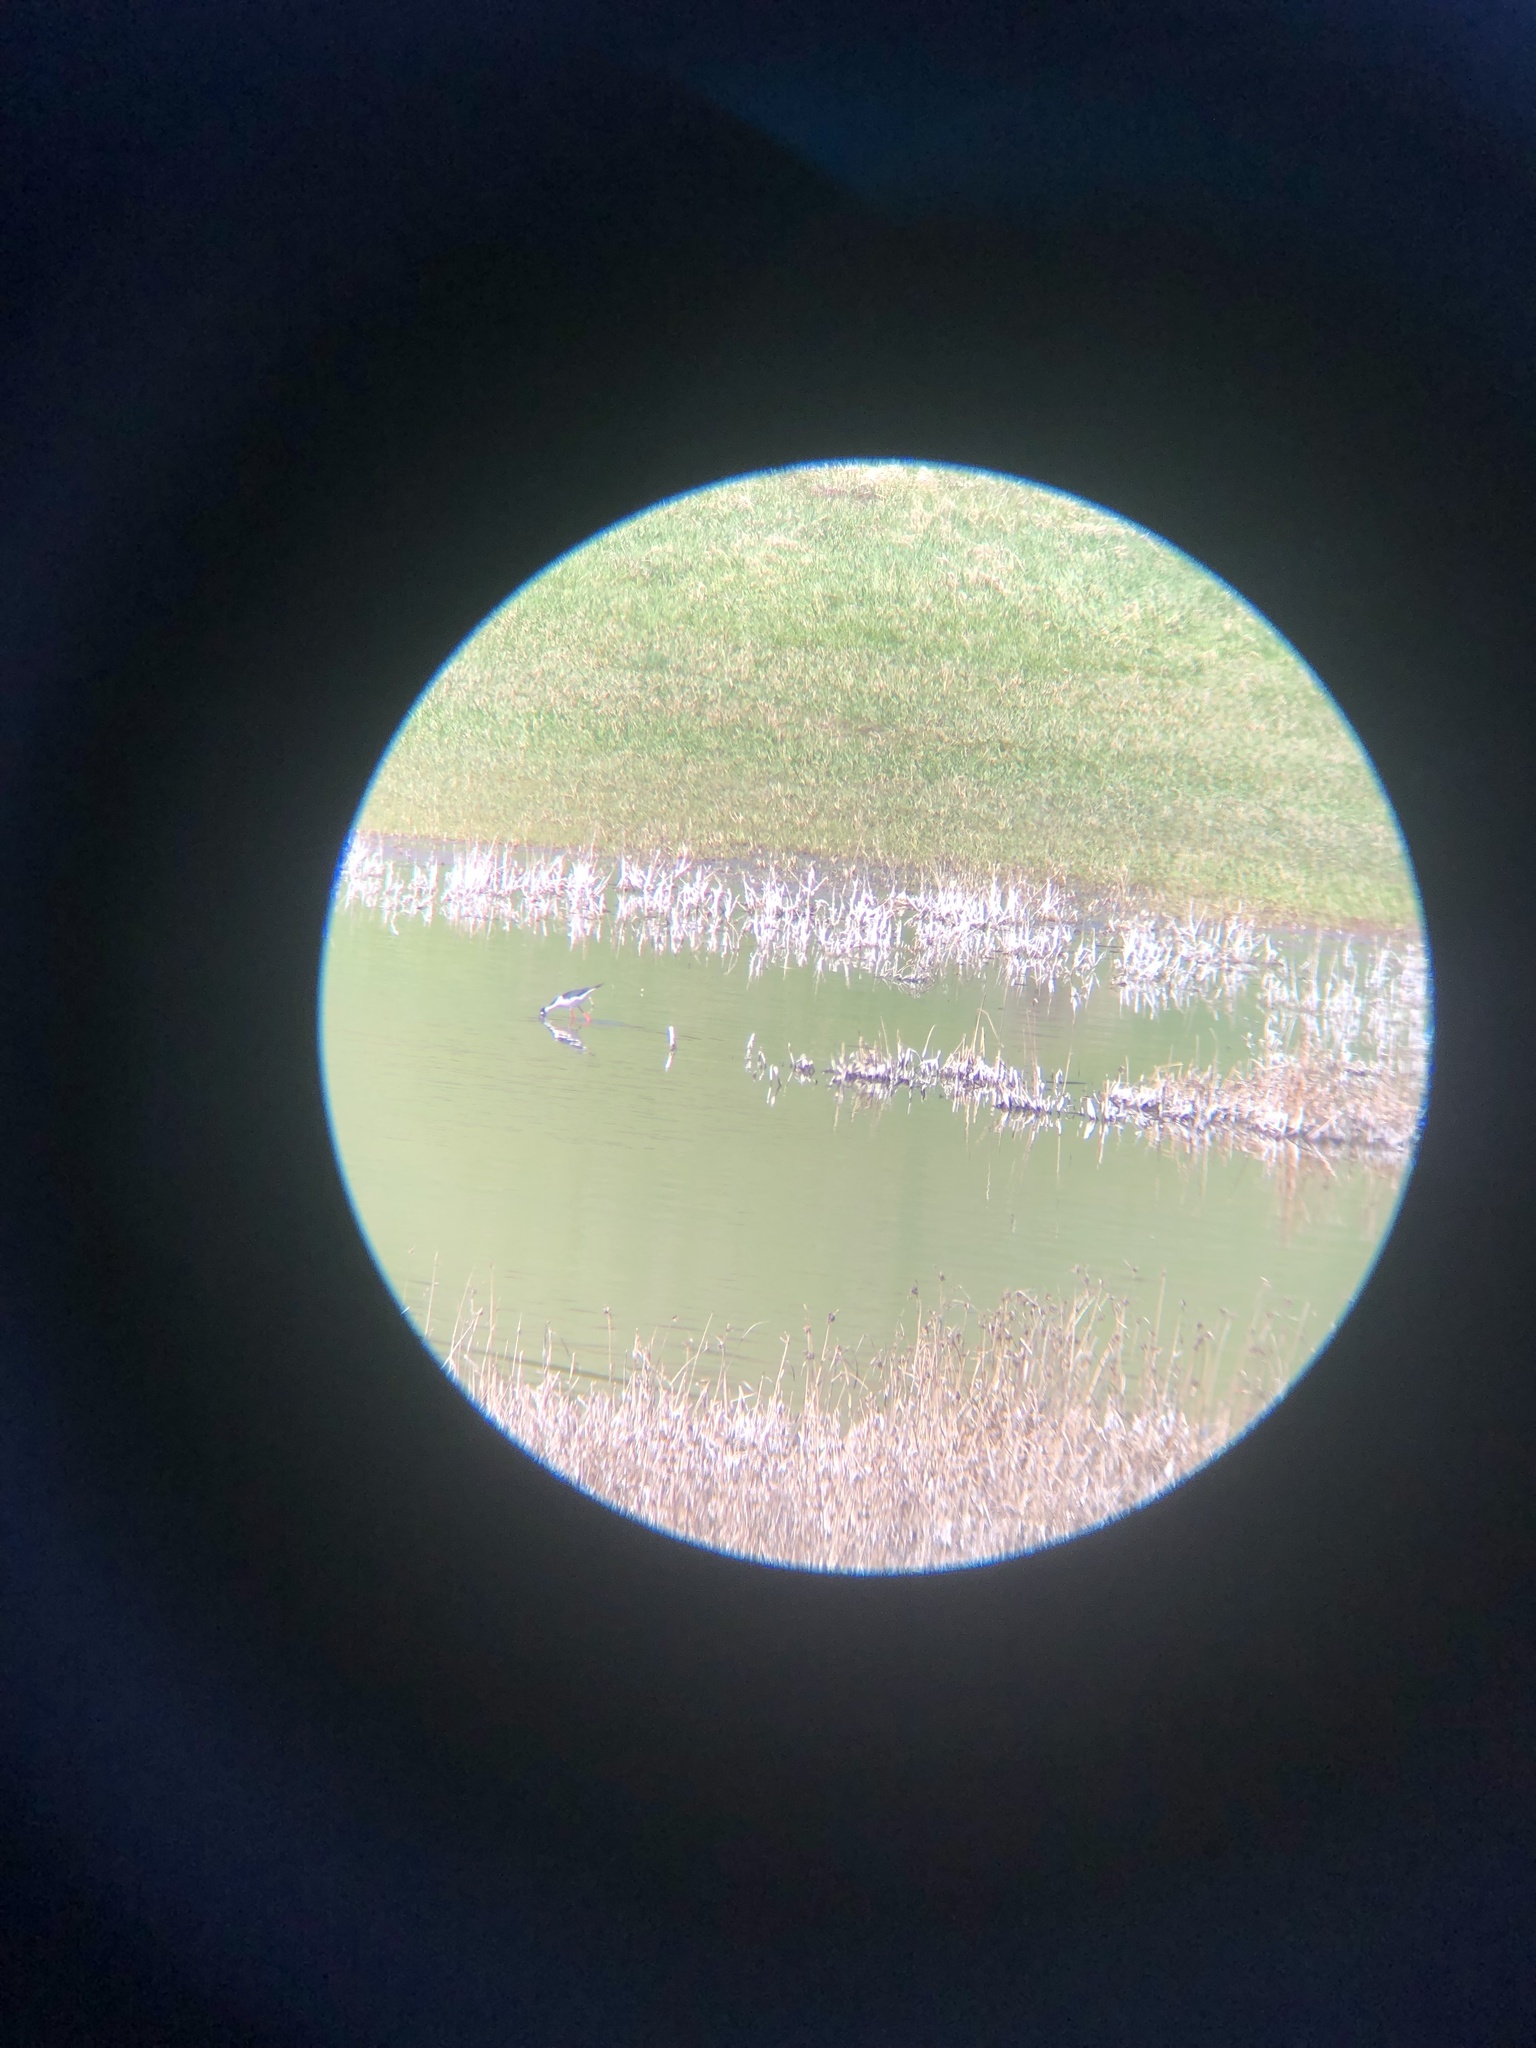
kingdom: Animalia
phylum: Chordata
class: Aves
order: Charadriiformes
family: Recurvirostridae
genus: Himantopus
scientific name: Himantopus mexicanus
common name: Black-necked stilt
